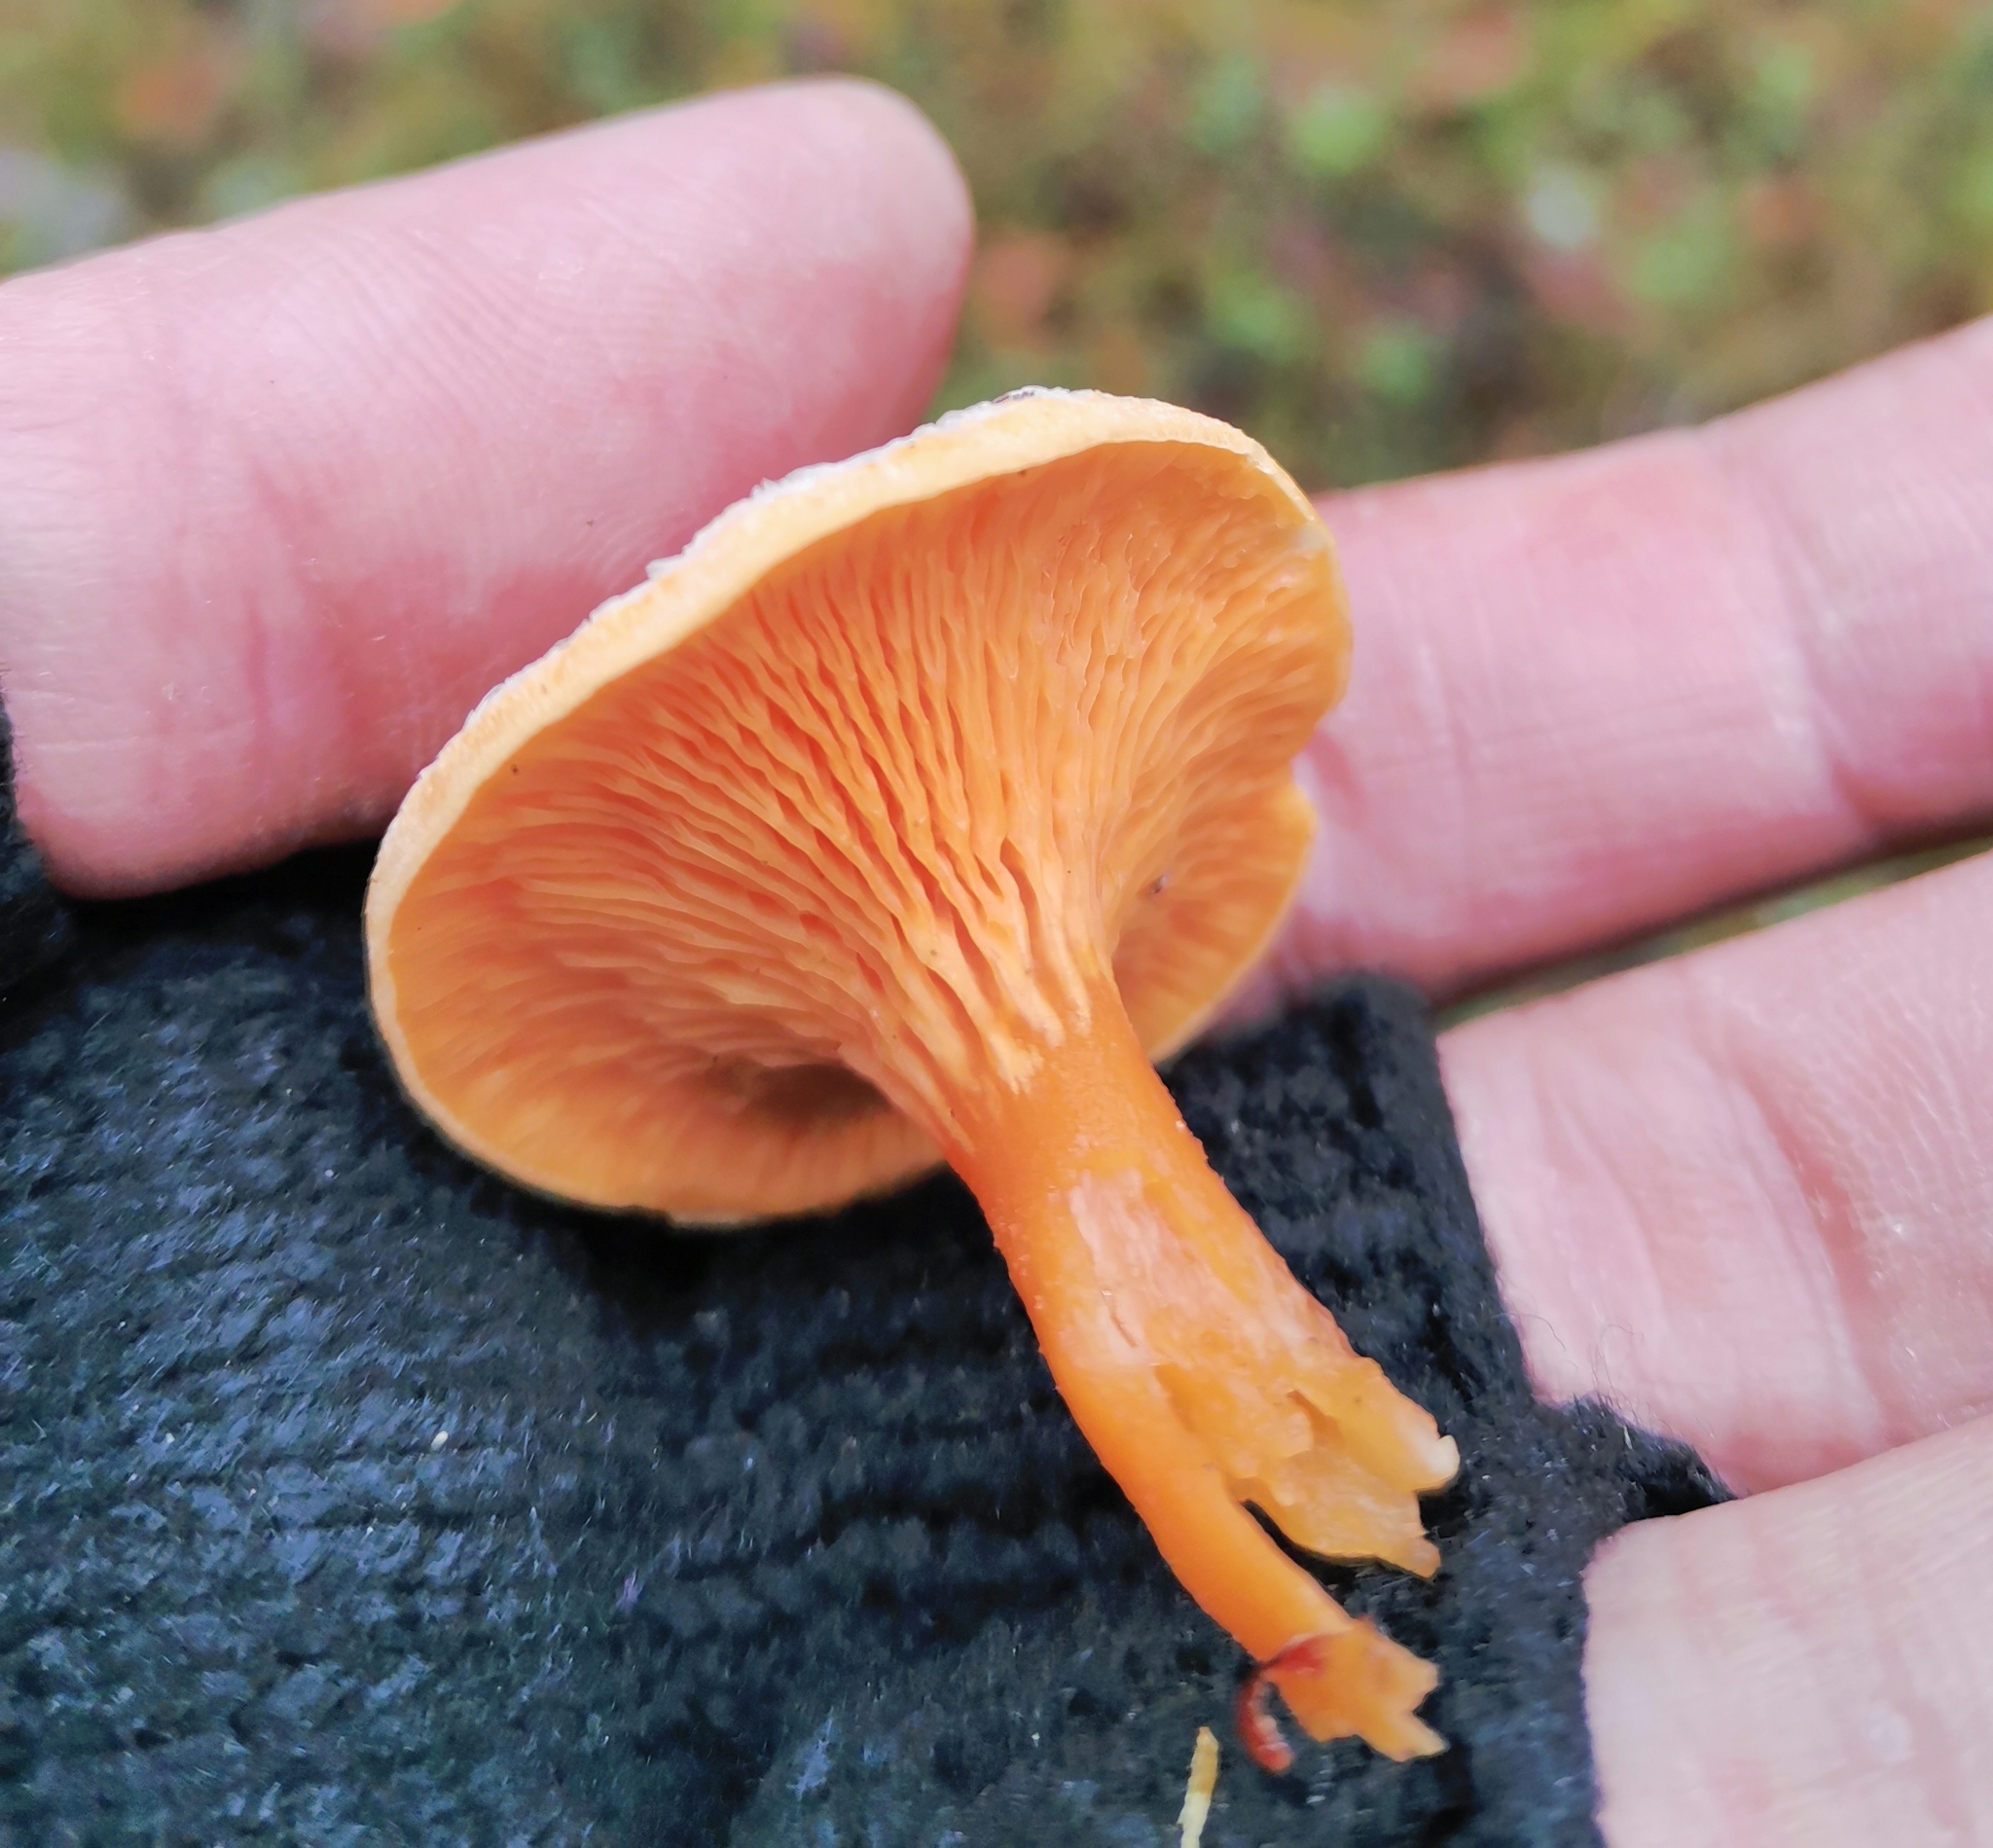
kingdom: Fungi
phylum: Basidiomycota
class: Agaricomycetes
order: Boletales
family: Hygrophoropsidaceae
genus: Hygrophoropsis
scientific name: Hygrophoropsis aurantiaca
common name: False chanterelle
